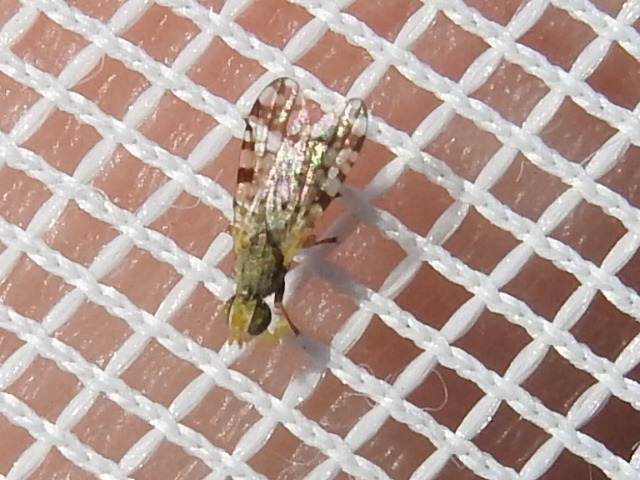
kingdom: Animalia
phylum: Arthropoda
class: Insecta
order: Diptera
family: Tephritidae
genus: Dioxyna
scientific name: Dioxyna picciola
